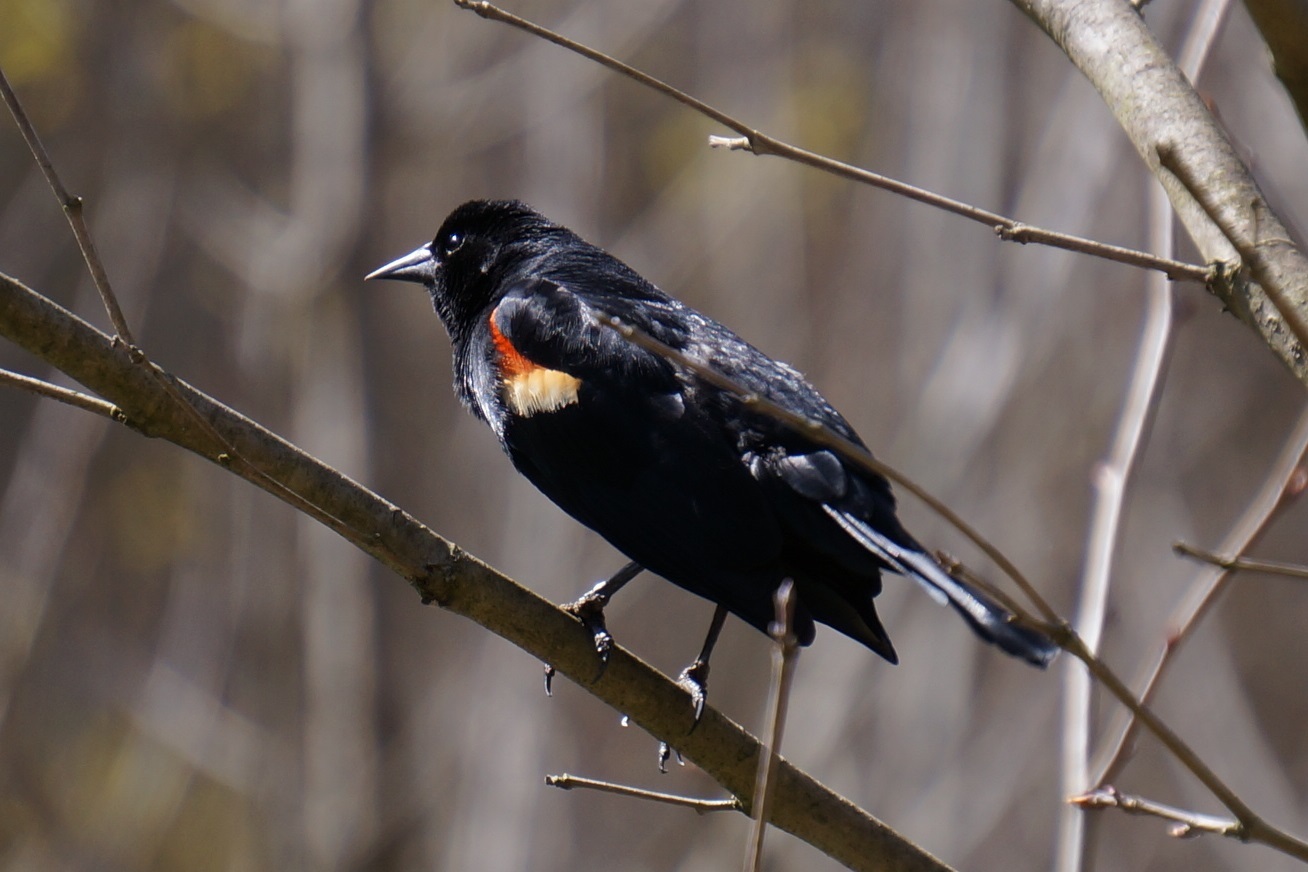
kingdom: Animalia
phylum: Chordata
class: Aves
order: Passeriformes
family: Icteridae
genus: Agelaius
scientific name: Agelaius phoeniceus
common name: Red-winged blackbird
